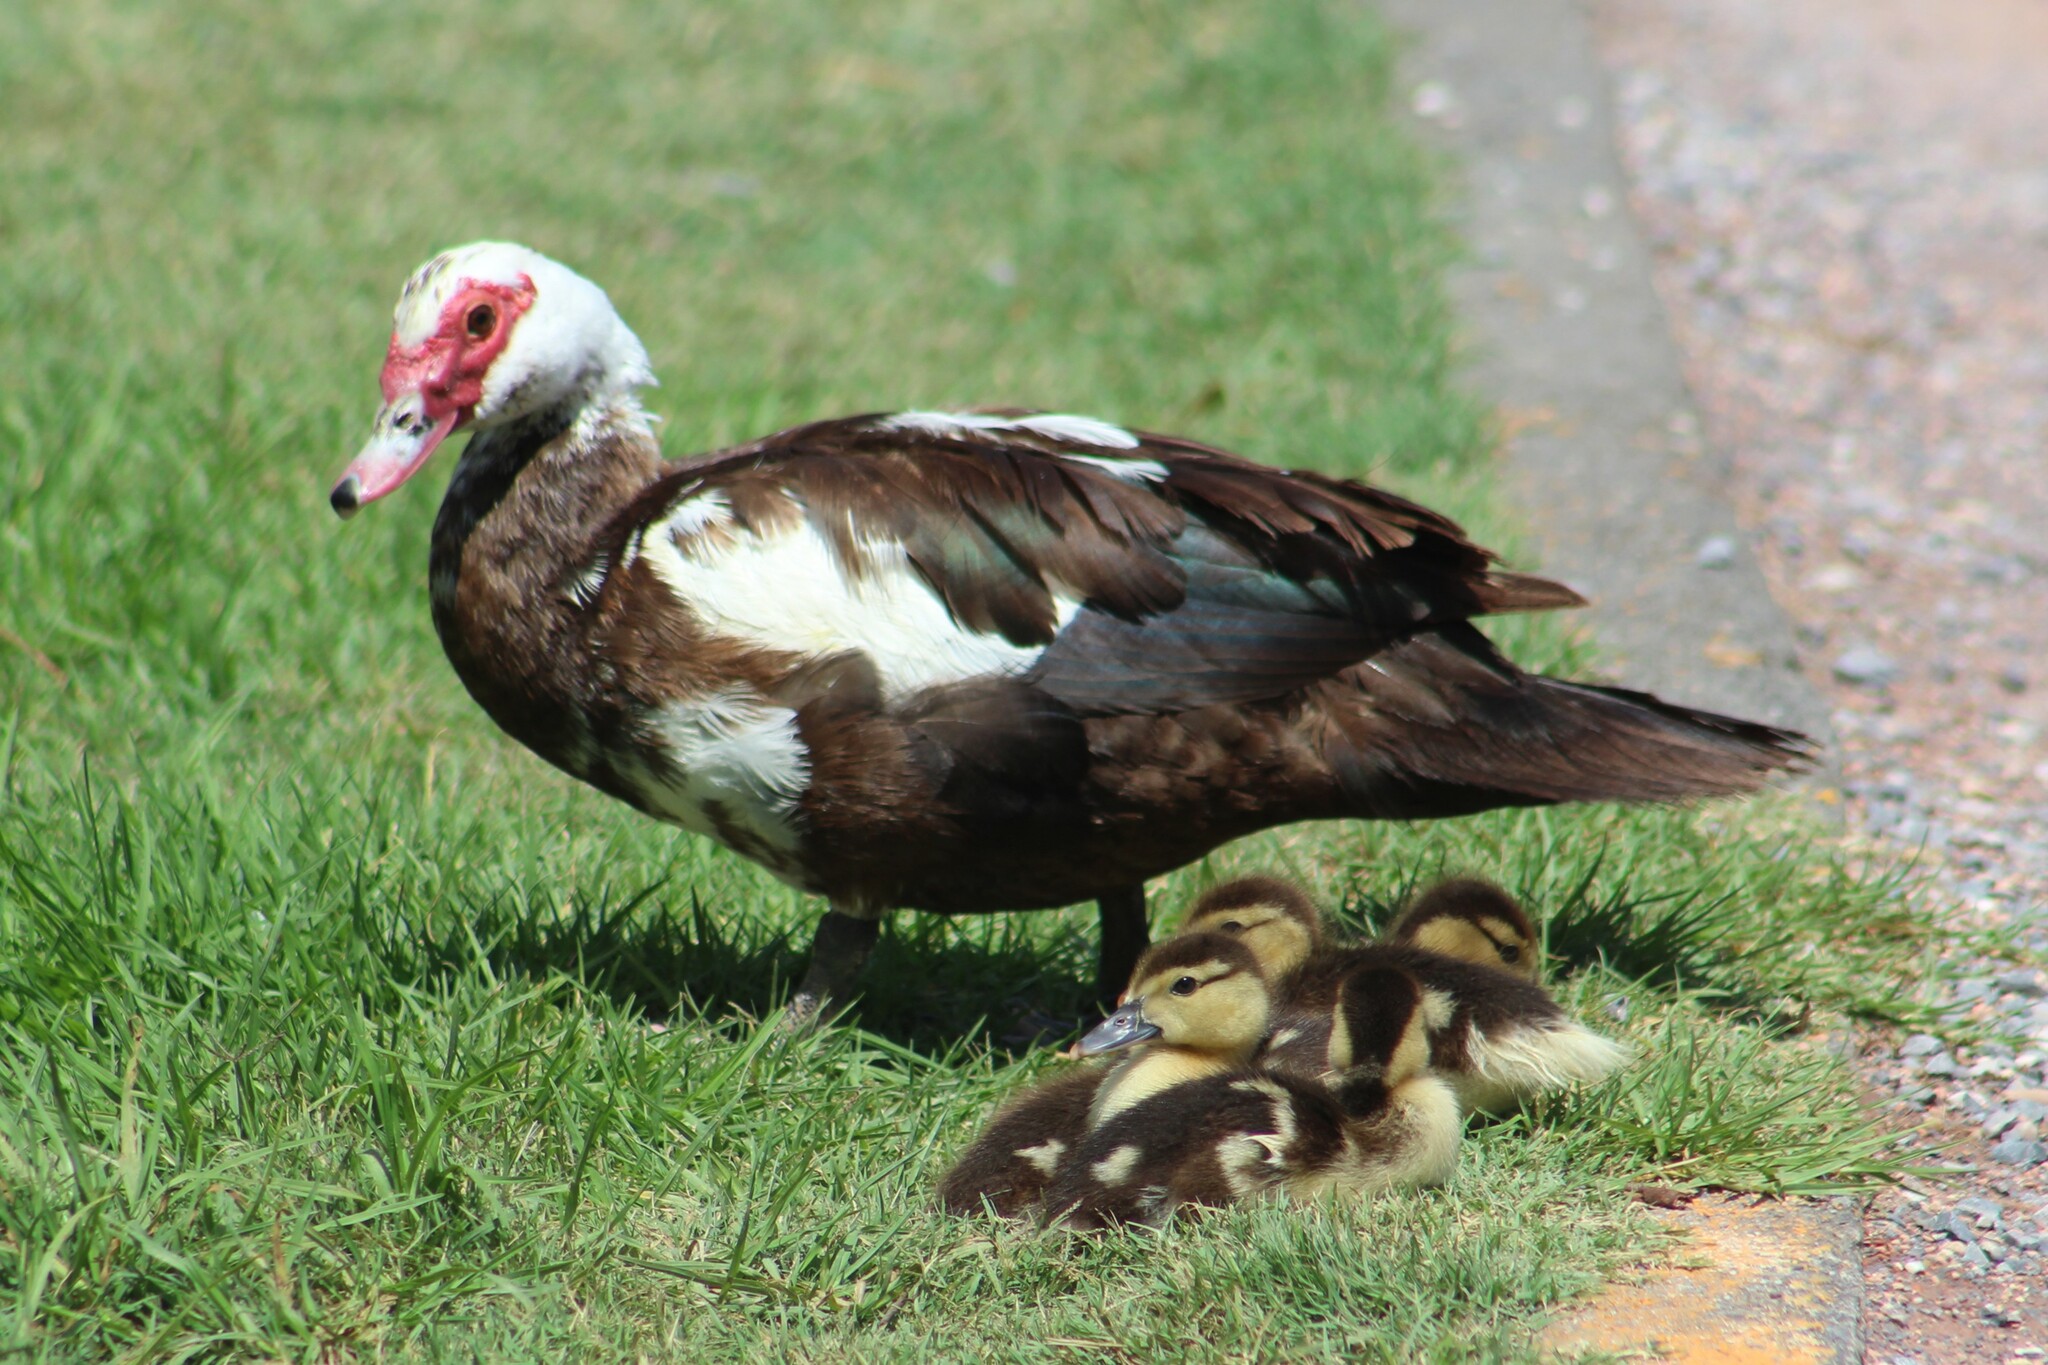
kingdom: Animalia
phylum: Chordata
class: Aves
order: Anseriformes
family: Anatidae
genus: Cairina
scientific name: Cairina moschata
